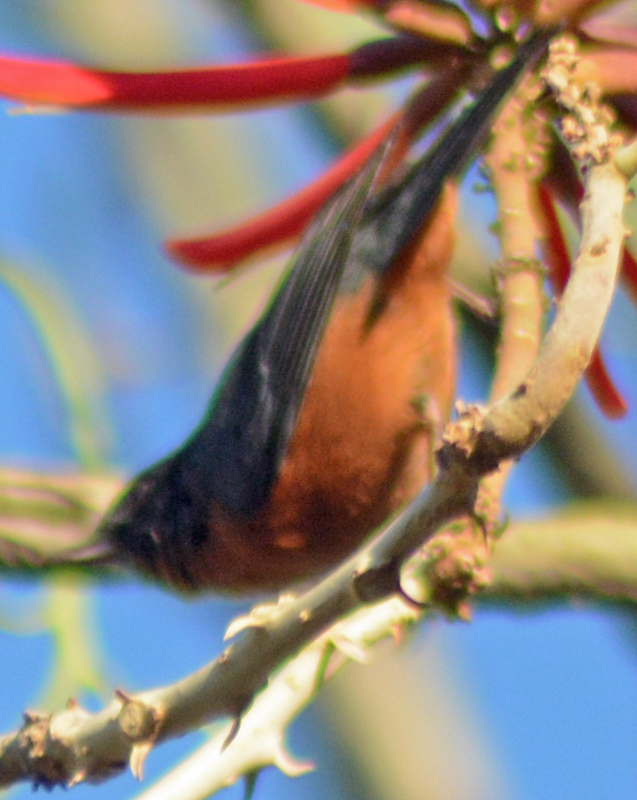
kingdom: Animalia
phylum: Chordata
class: Aves
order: Passeriformes
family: Thraupidae
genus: Diglossa
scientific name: Diglossa baritula
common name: Cinnamon-bellied flowerpiercer
